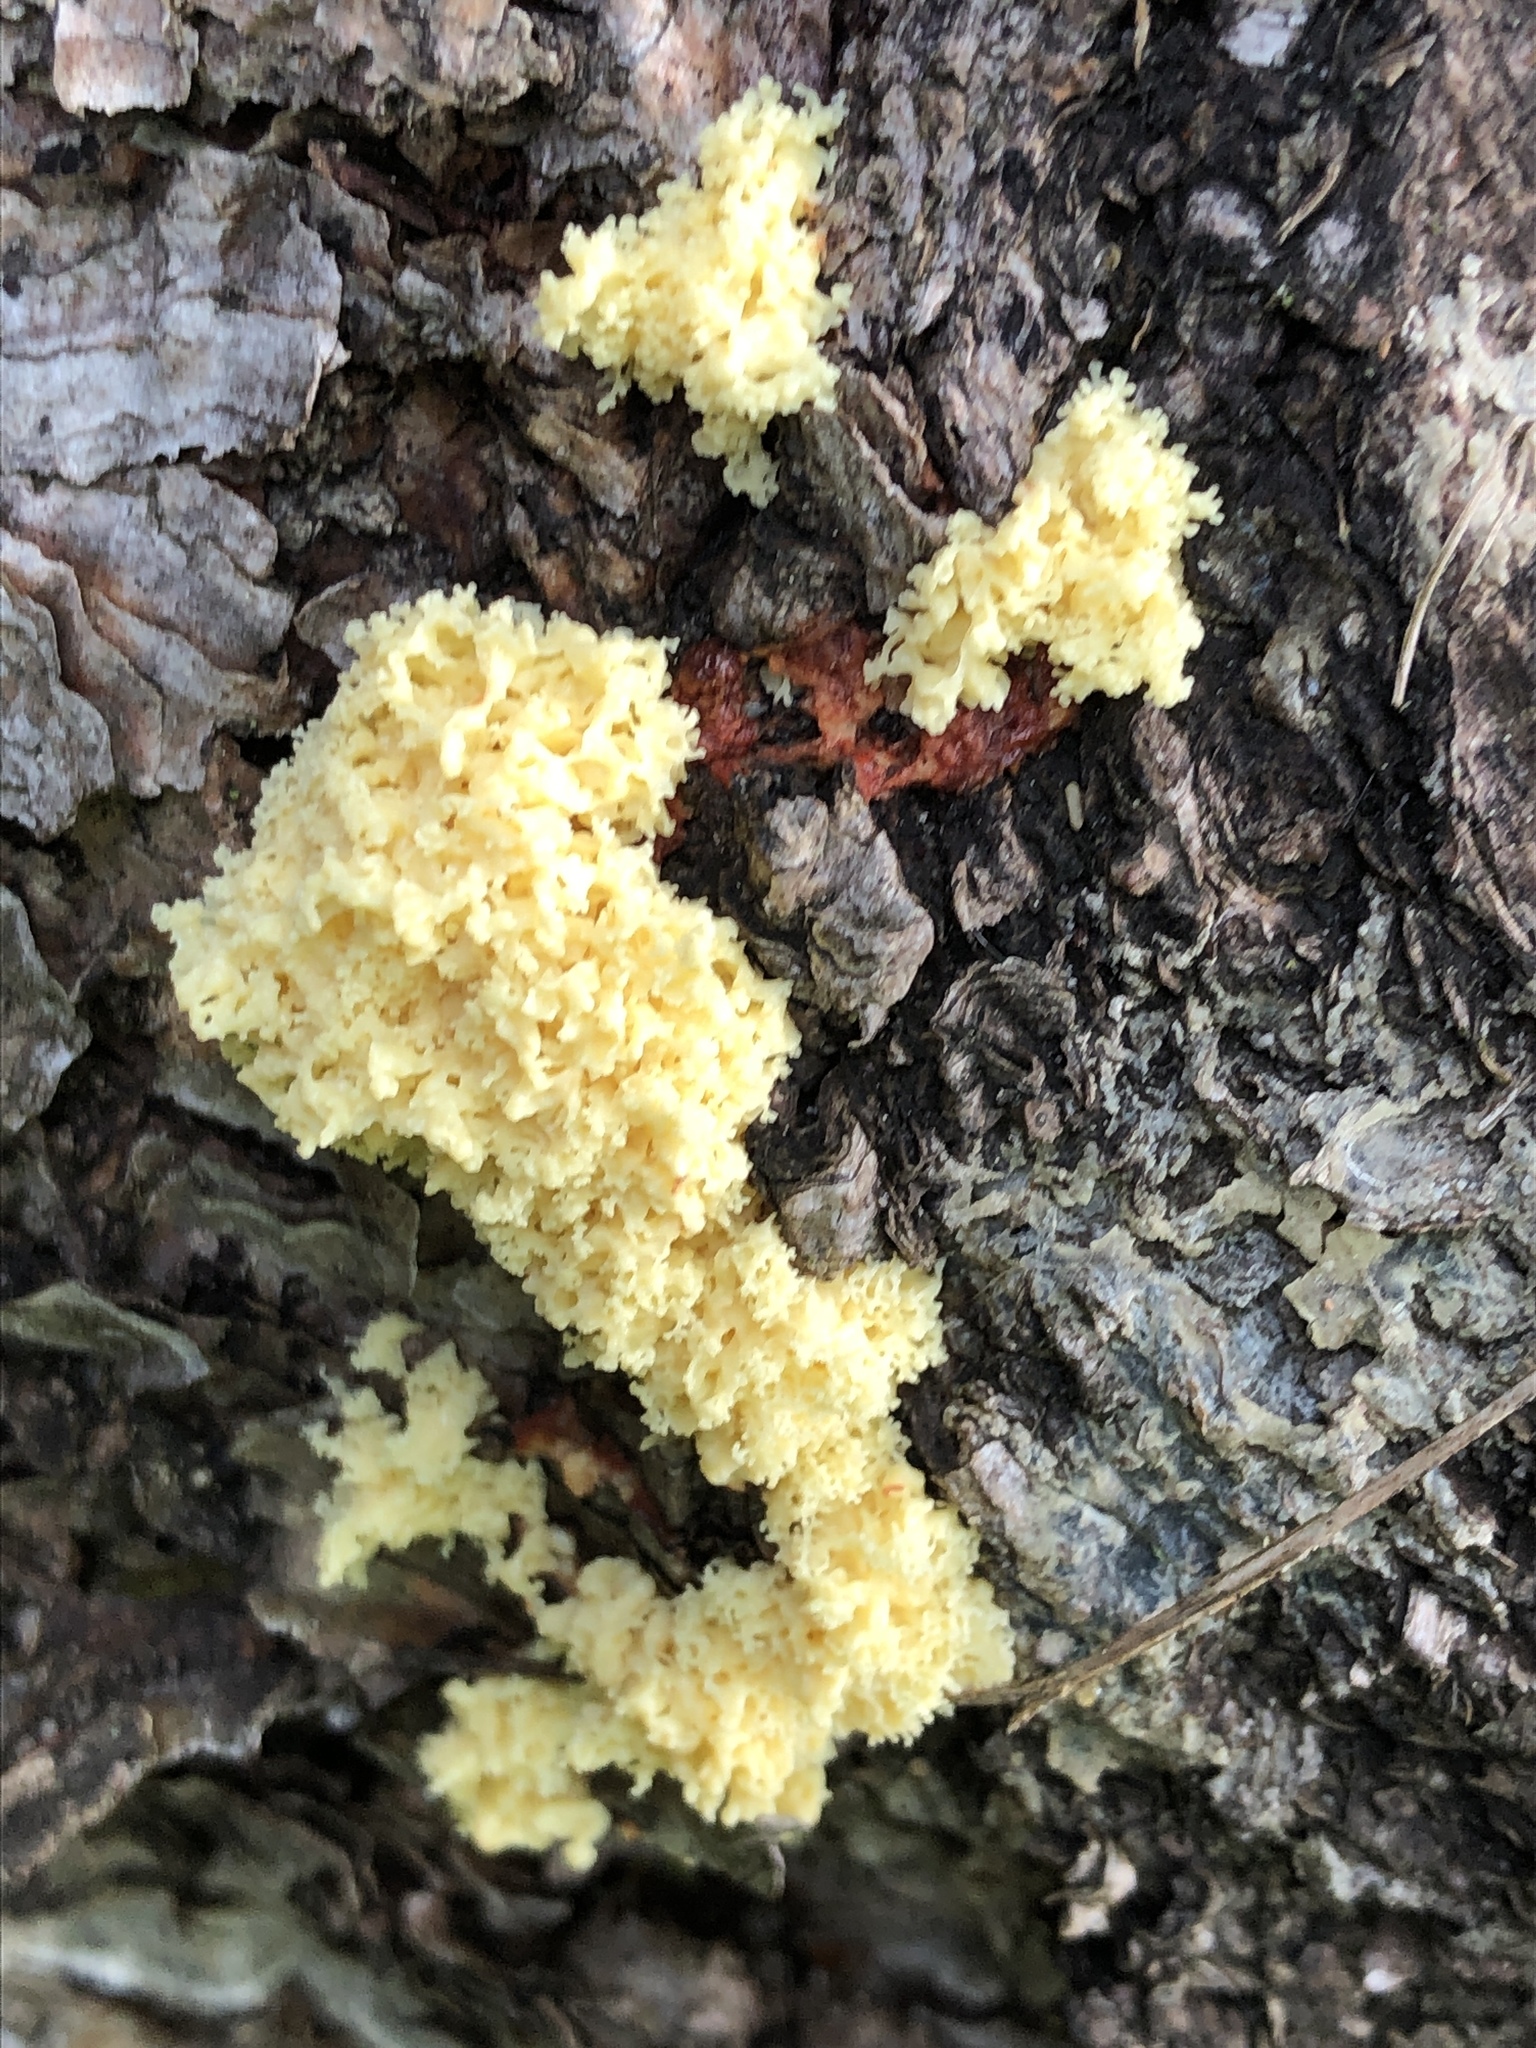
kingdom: Protozoa
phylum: Mycetozoa
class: Myxomycetes
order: Physarales
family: Physaraceae
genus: Fuligo
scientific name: Fuligo septica
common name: Dog vomit slime mold
